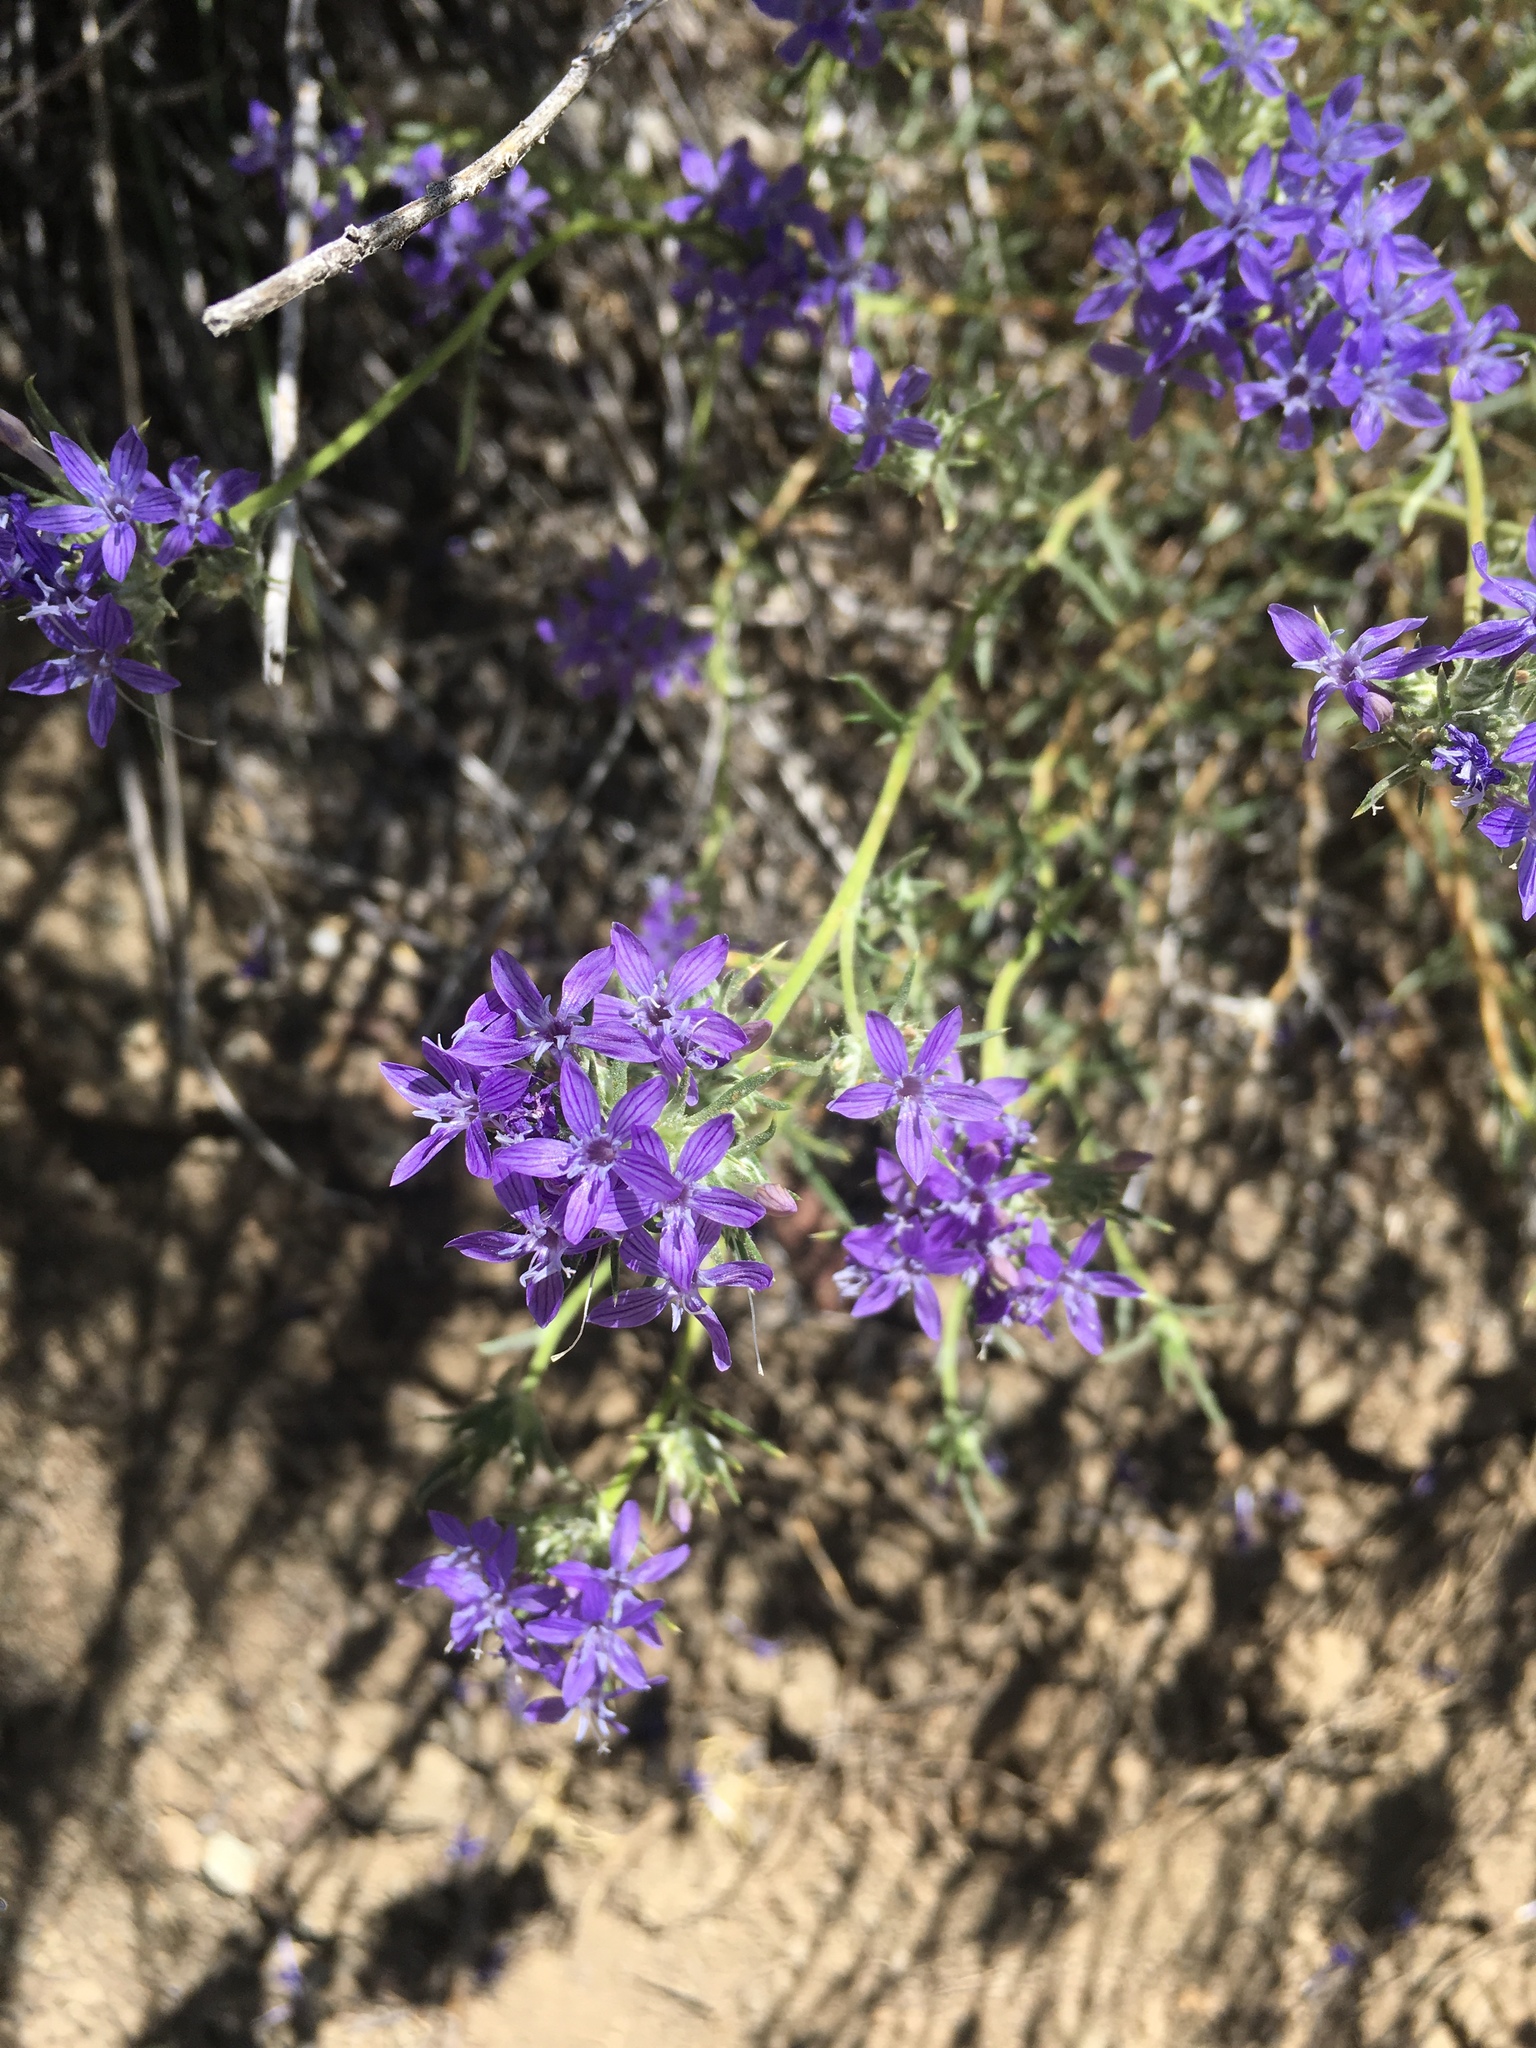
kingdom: Plantae
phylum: Tracheophyta
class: Magnoliopsida
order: Ericales
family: Polemoniaceae
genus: Eriastrum
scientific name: Eriastrum densifolium
